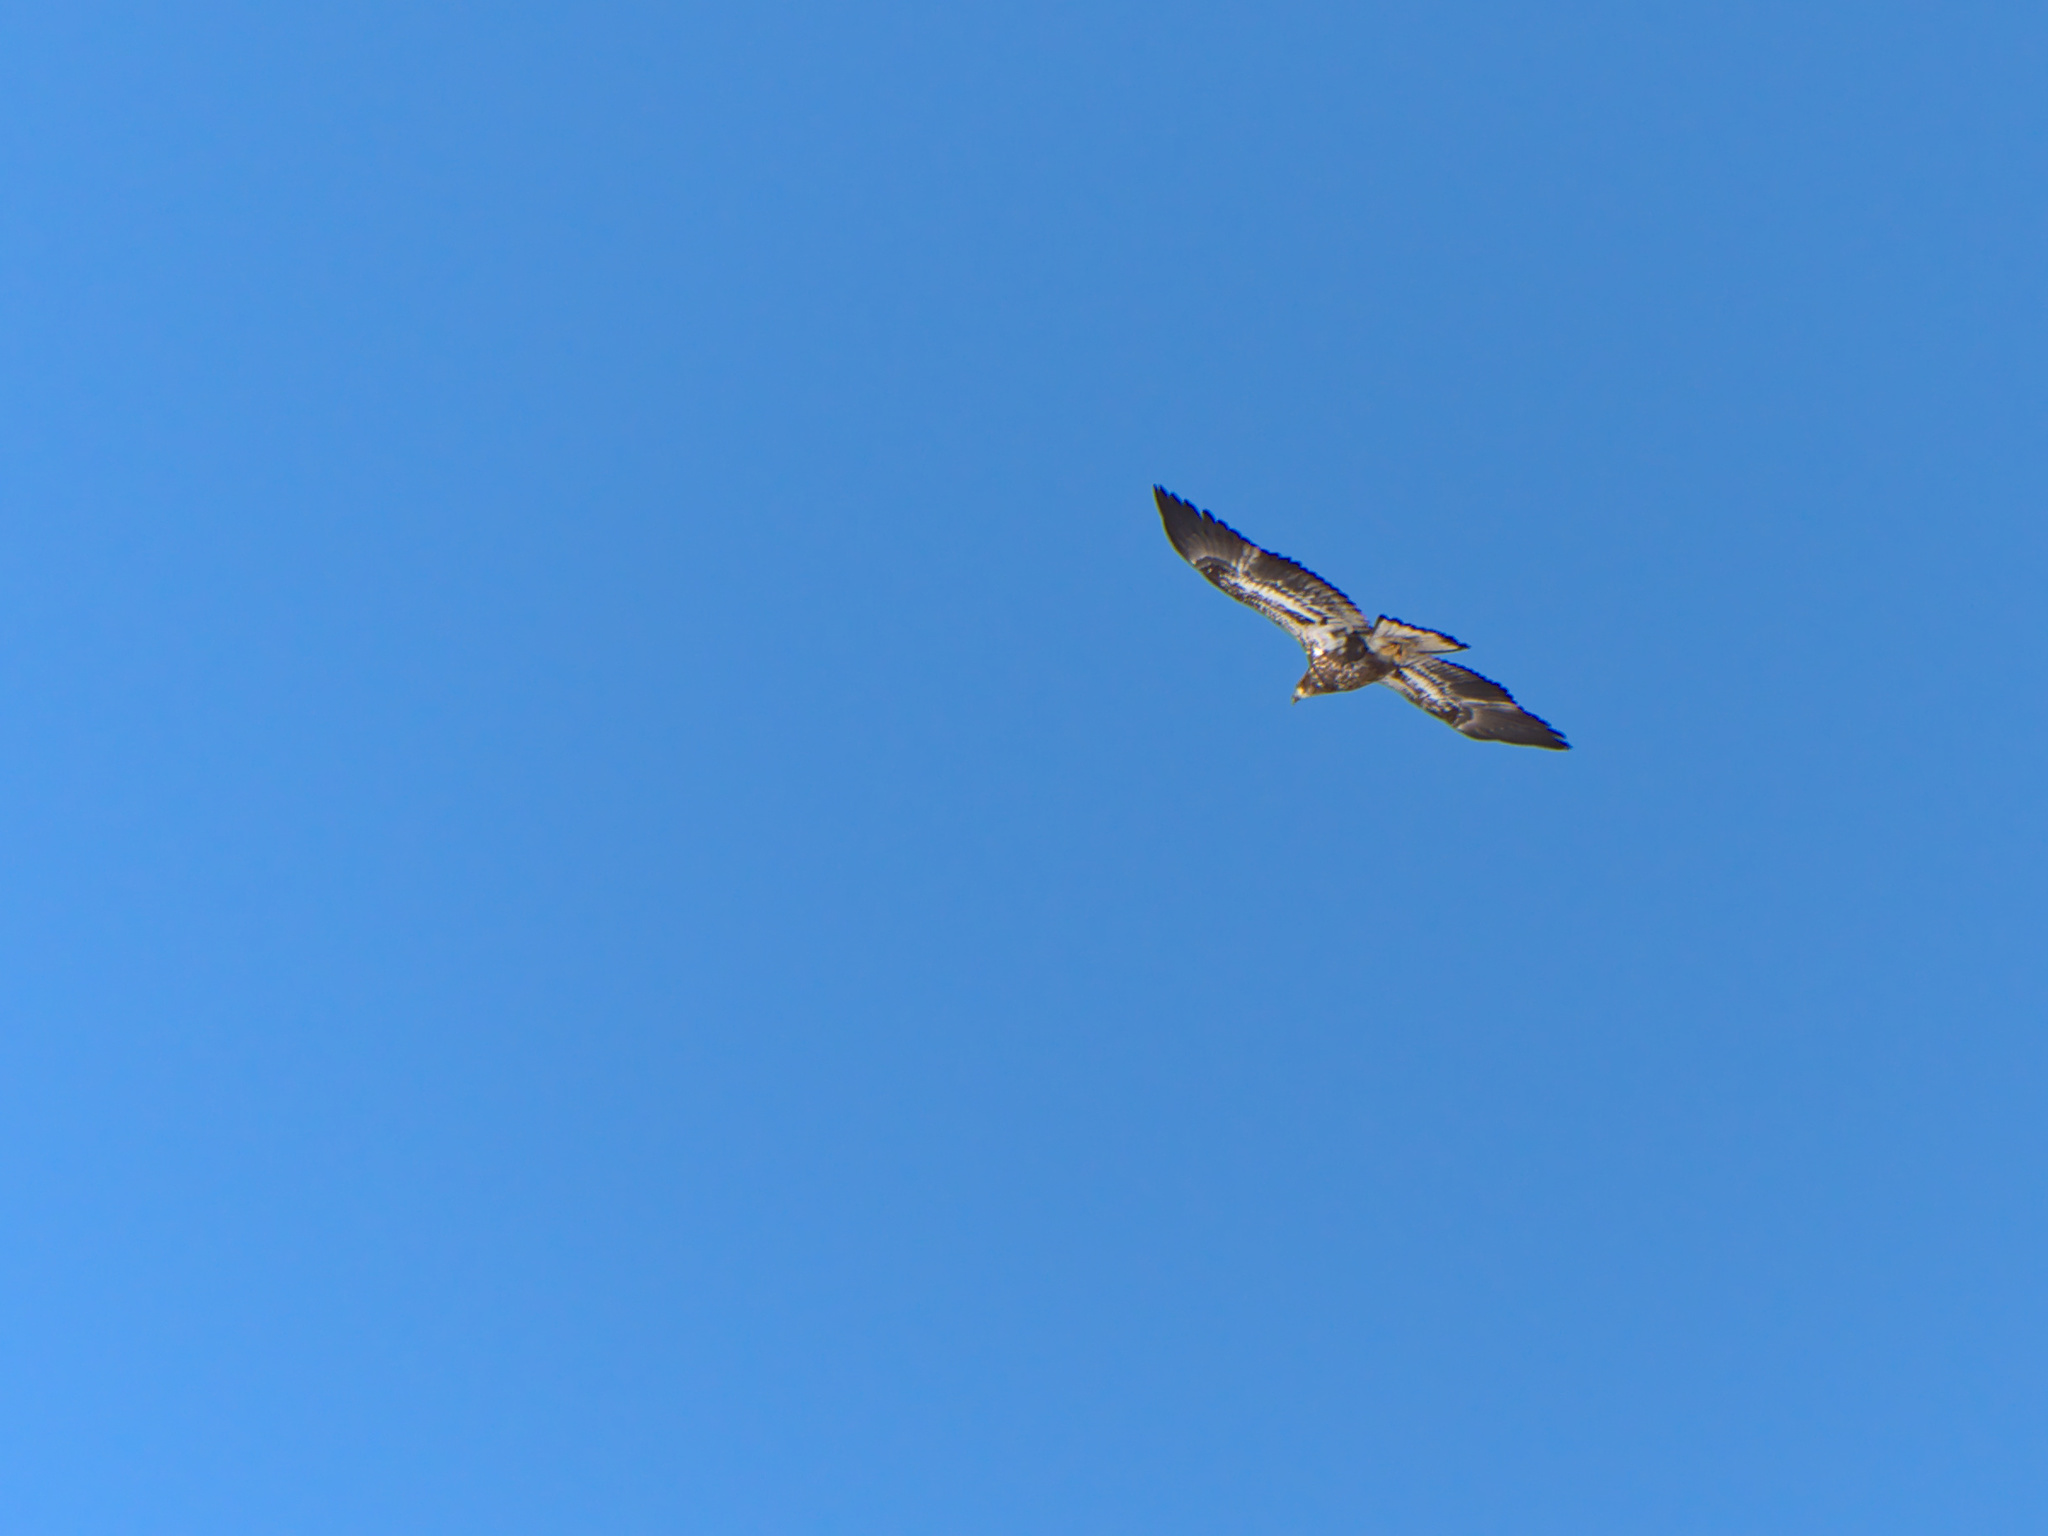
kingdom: Animalia
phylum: Chordata
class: Aves
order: Accipitriformes
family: Accipitridae
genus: Haliaeetus
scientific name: Haliaeetus leucocephalus
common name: Bald eagle
